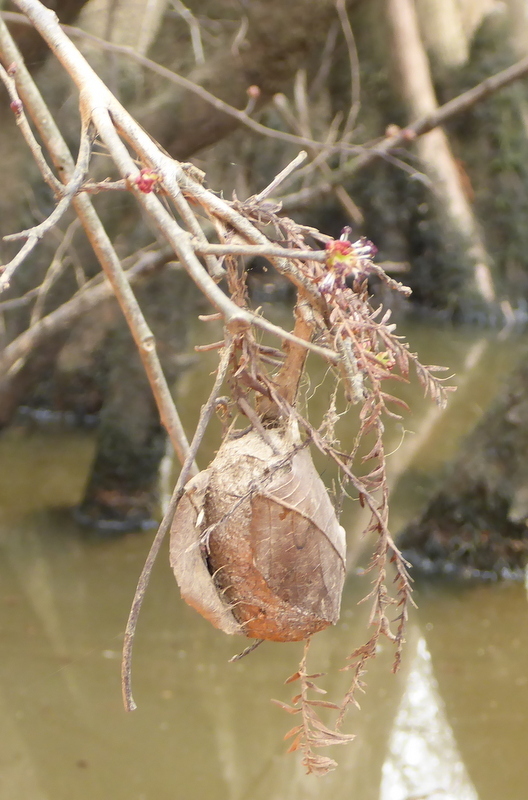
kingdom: Animalia
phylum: Arthropoda
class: Insecta
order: Lepidoptera
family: Saturniidae
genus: Antheraea
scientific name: Antheraea polyphemus
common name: Polyphemus moth
